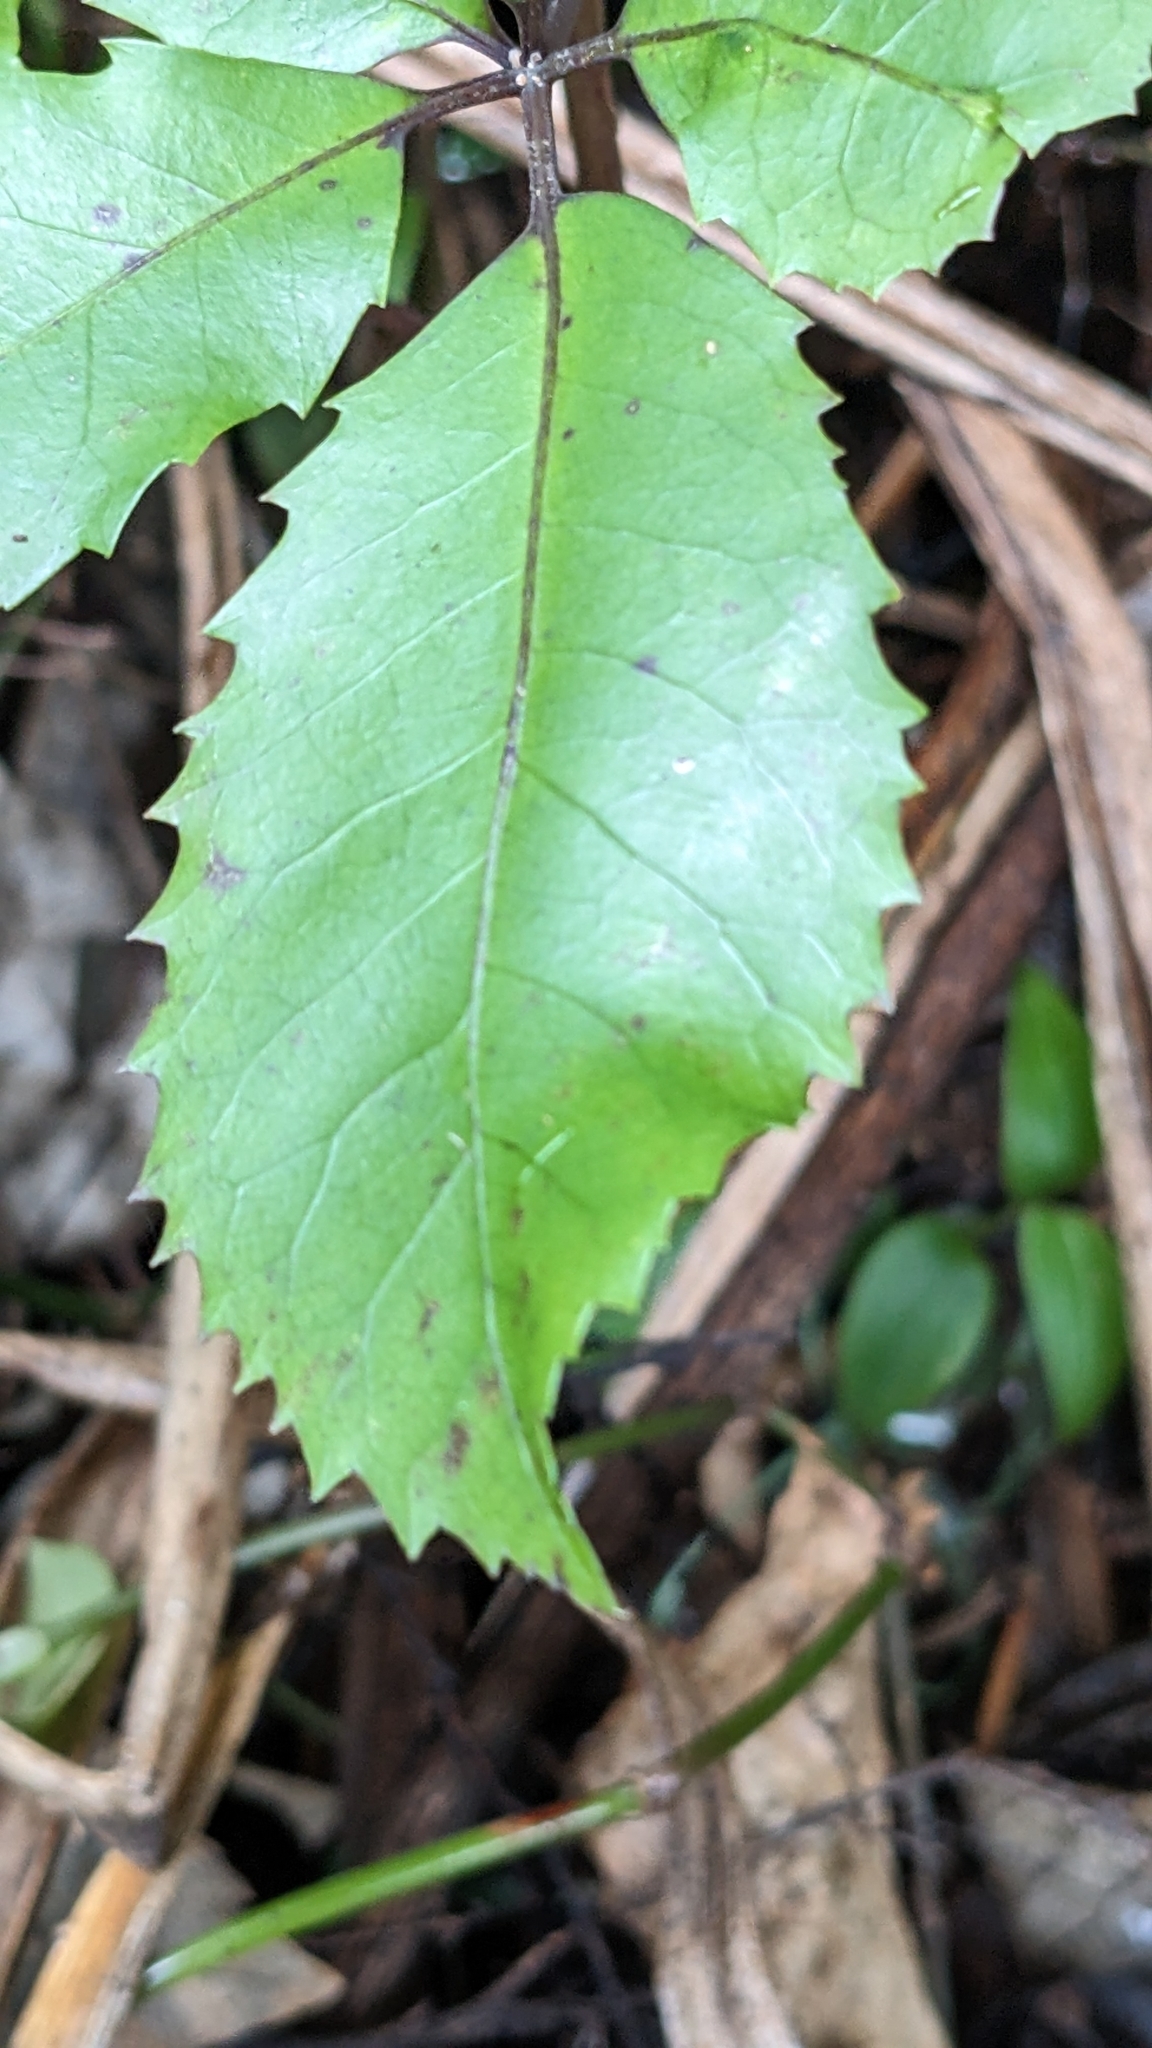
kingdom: Plantae
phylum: Tracheophyta
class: Magnoliopsida
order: Apiales
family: Araliaceae
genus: Neopanax
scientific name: Neopanax arboreus
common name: Five-fingers
